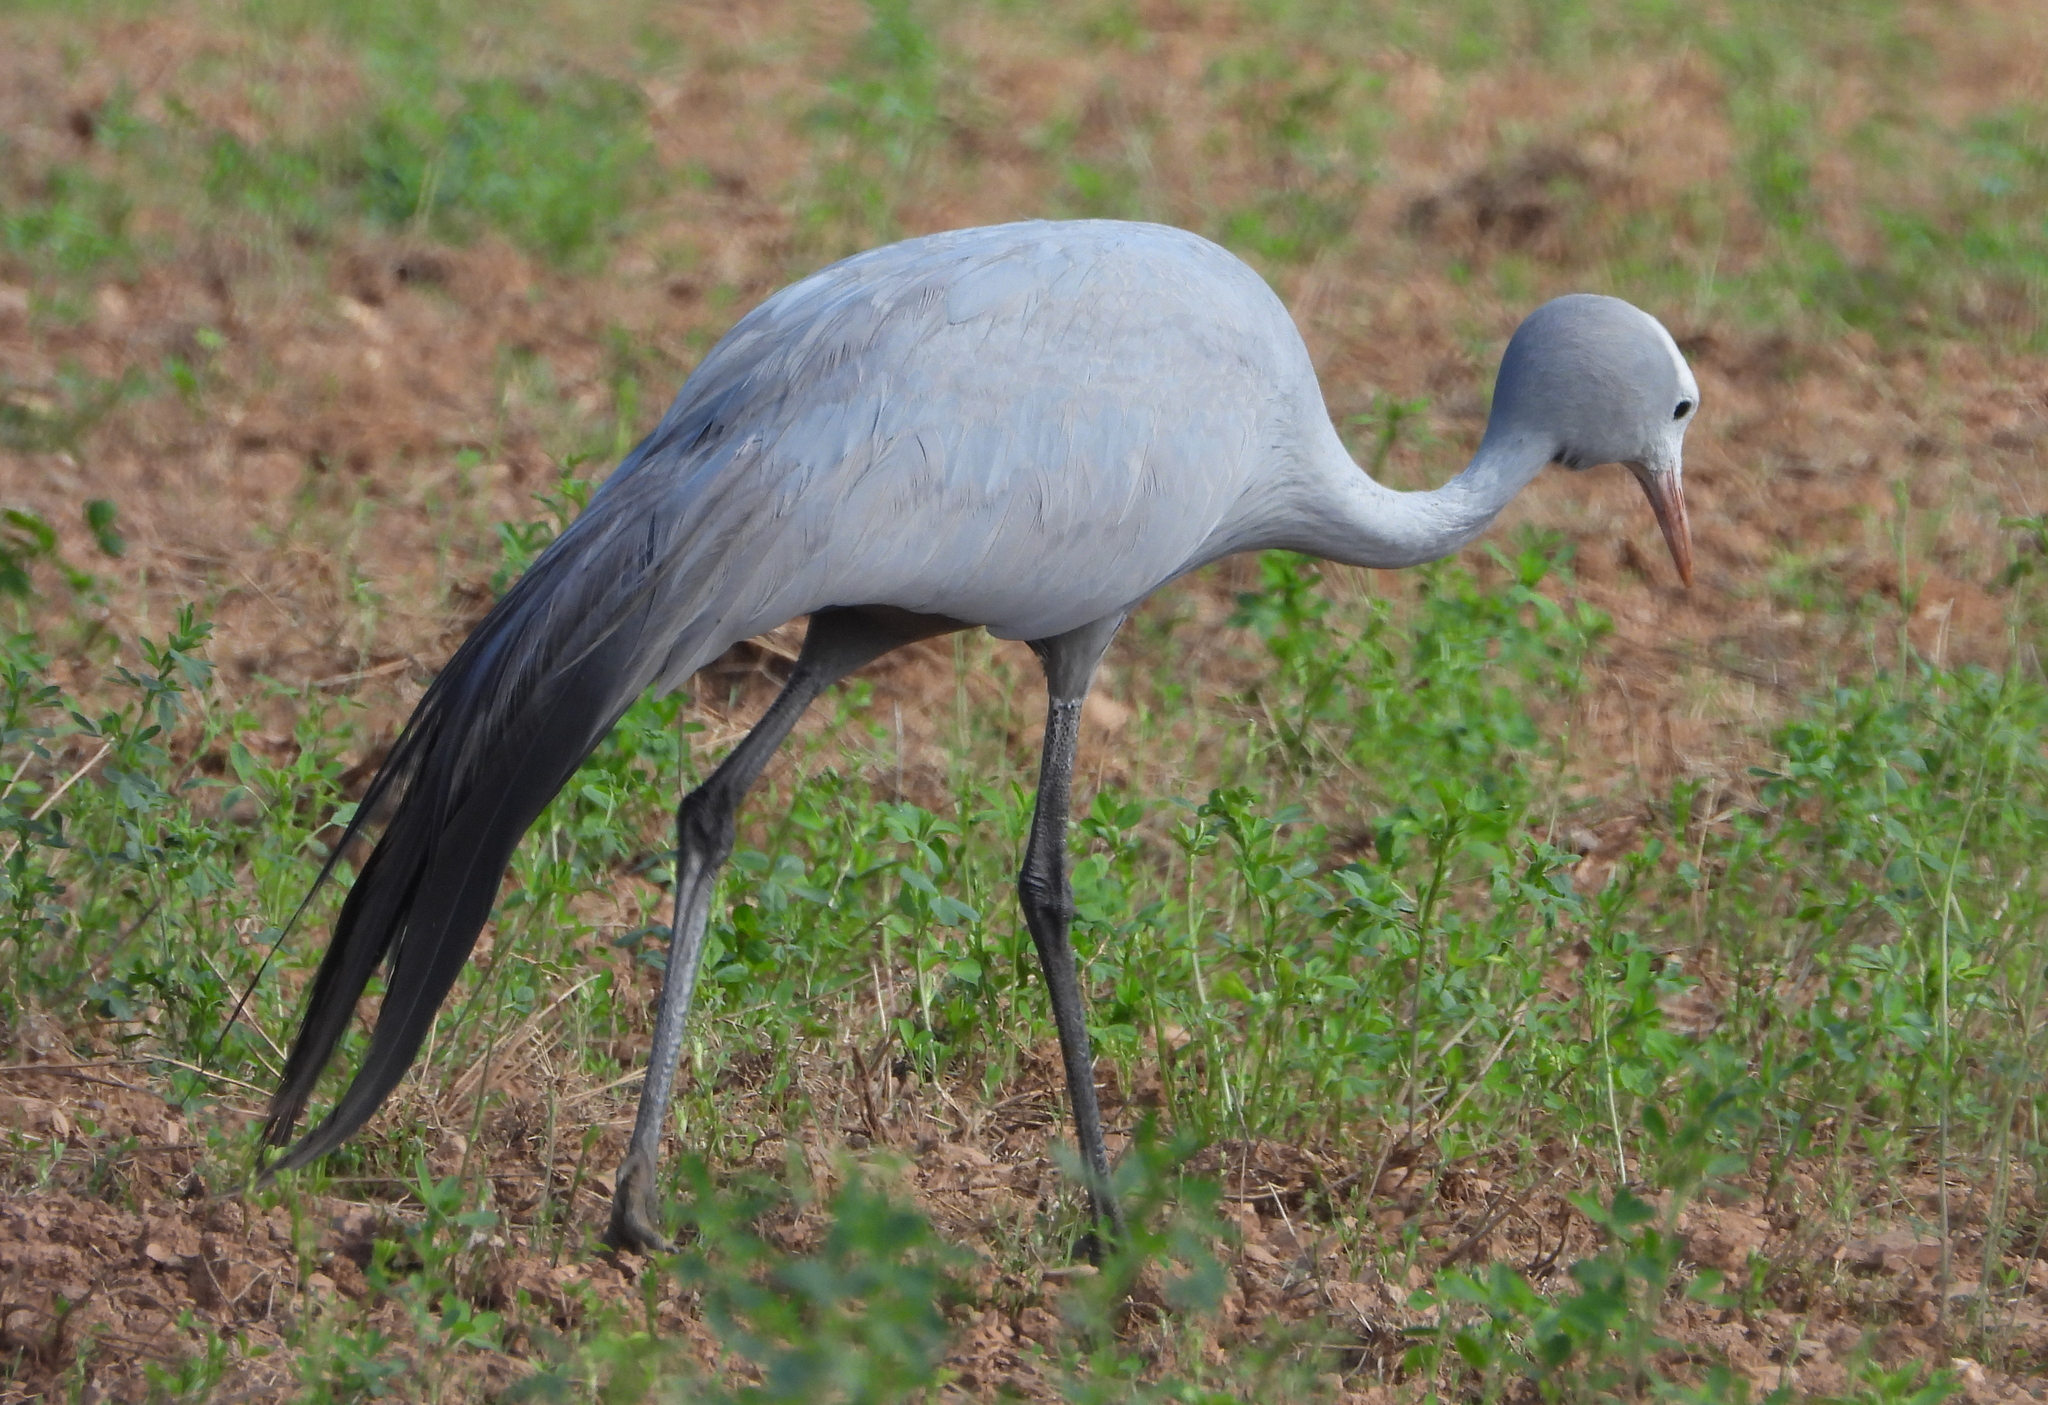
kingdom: Animalia
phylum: Chordata
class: Aves
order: Gruiformes
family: Gruidae
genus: Anthropoides
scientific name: Anthropoides paradiseus
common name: Blue crane
